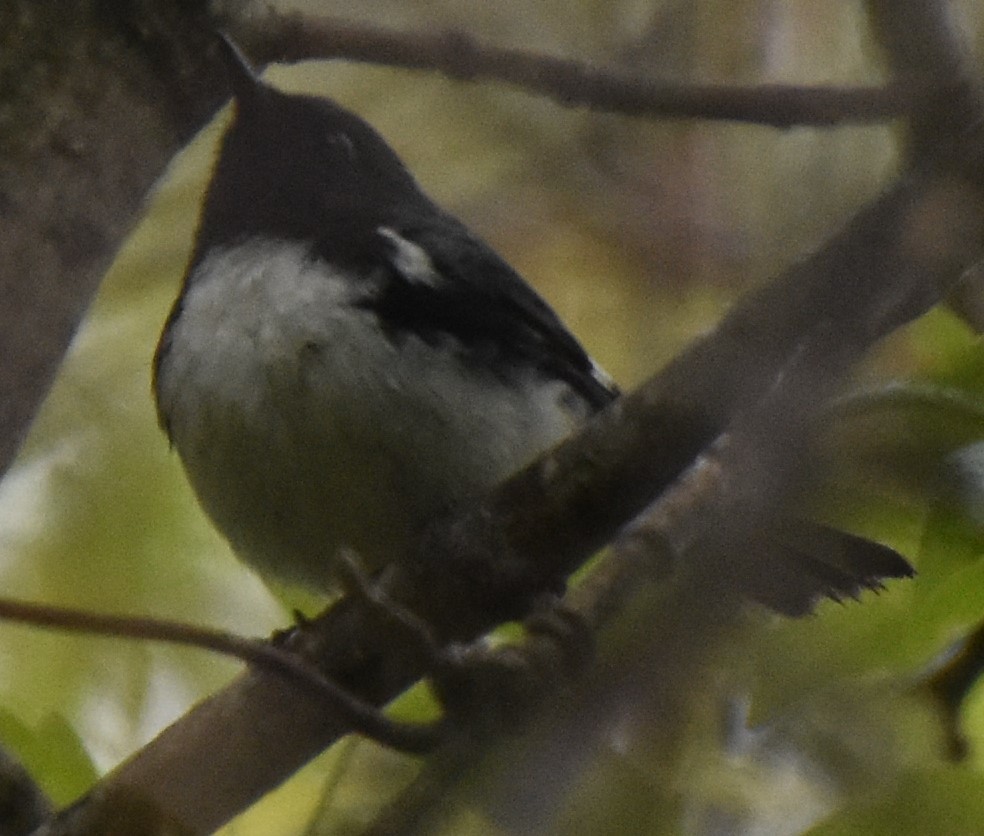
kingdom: Animalia
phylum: Chordata
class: Aves
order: Passeriformes
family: Parulidae
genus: Setophaga
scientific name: Setophaga caerulescens
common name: Black-throated blue warbler
